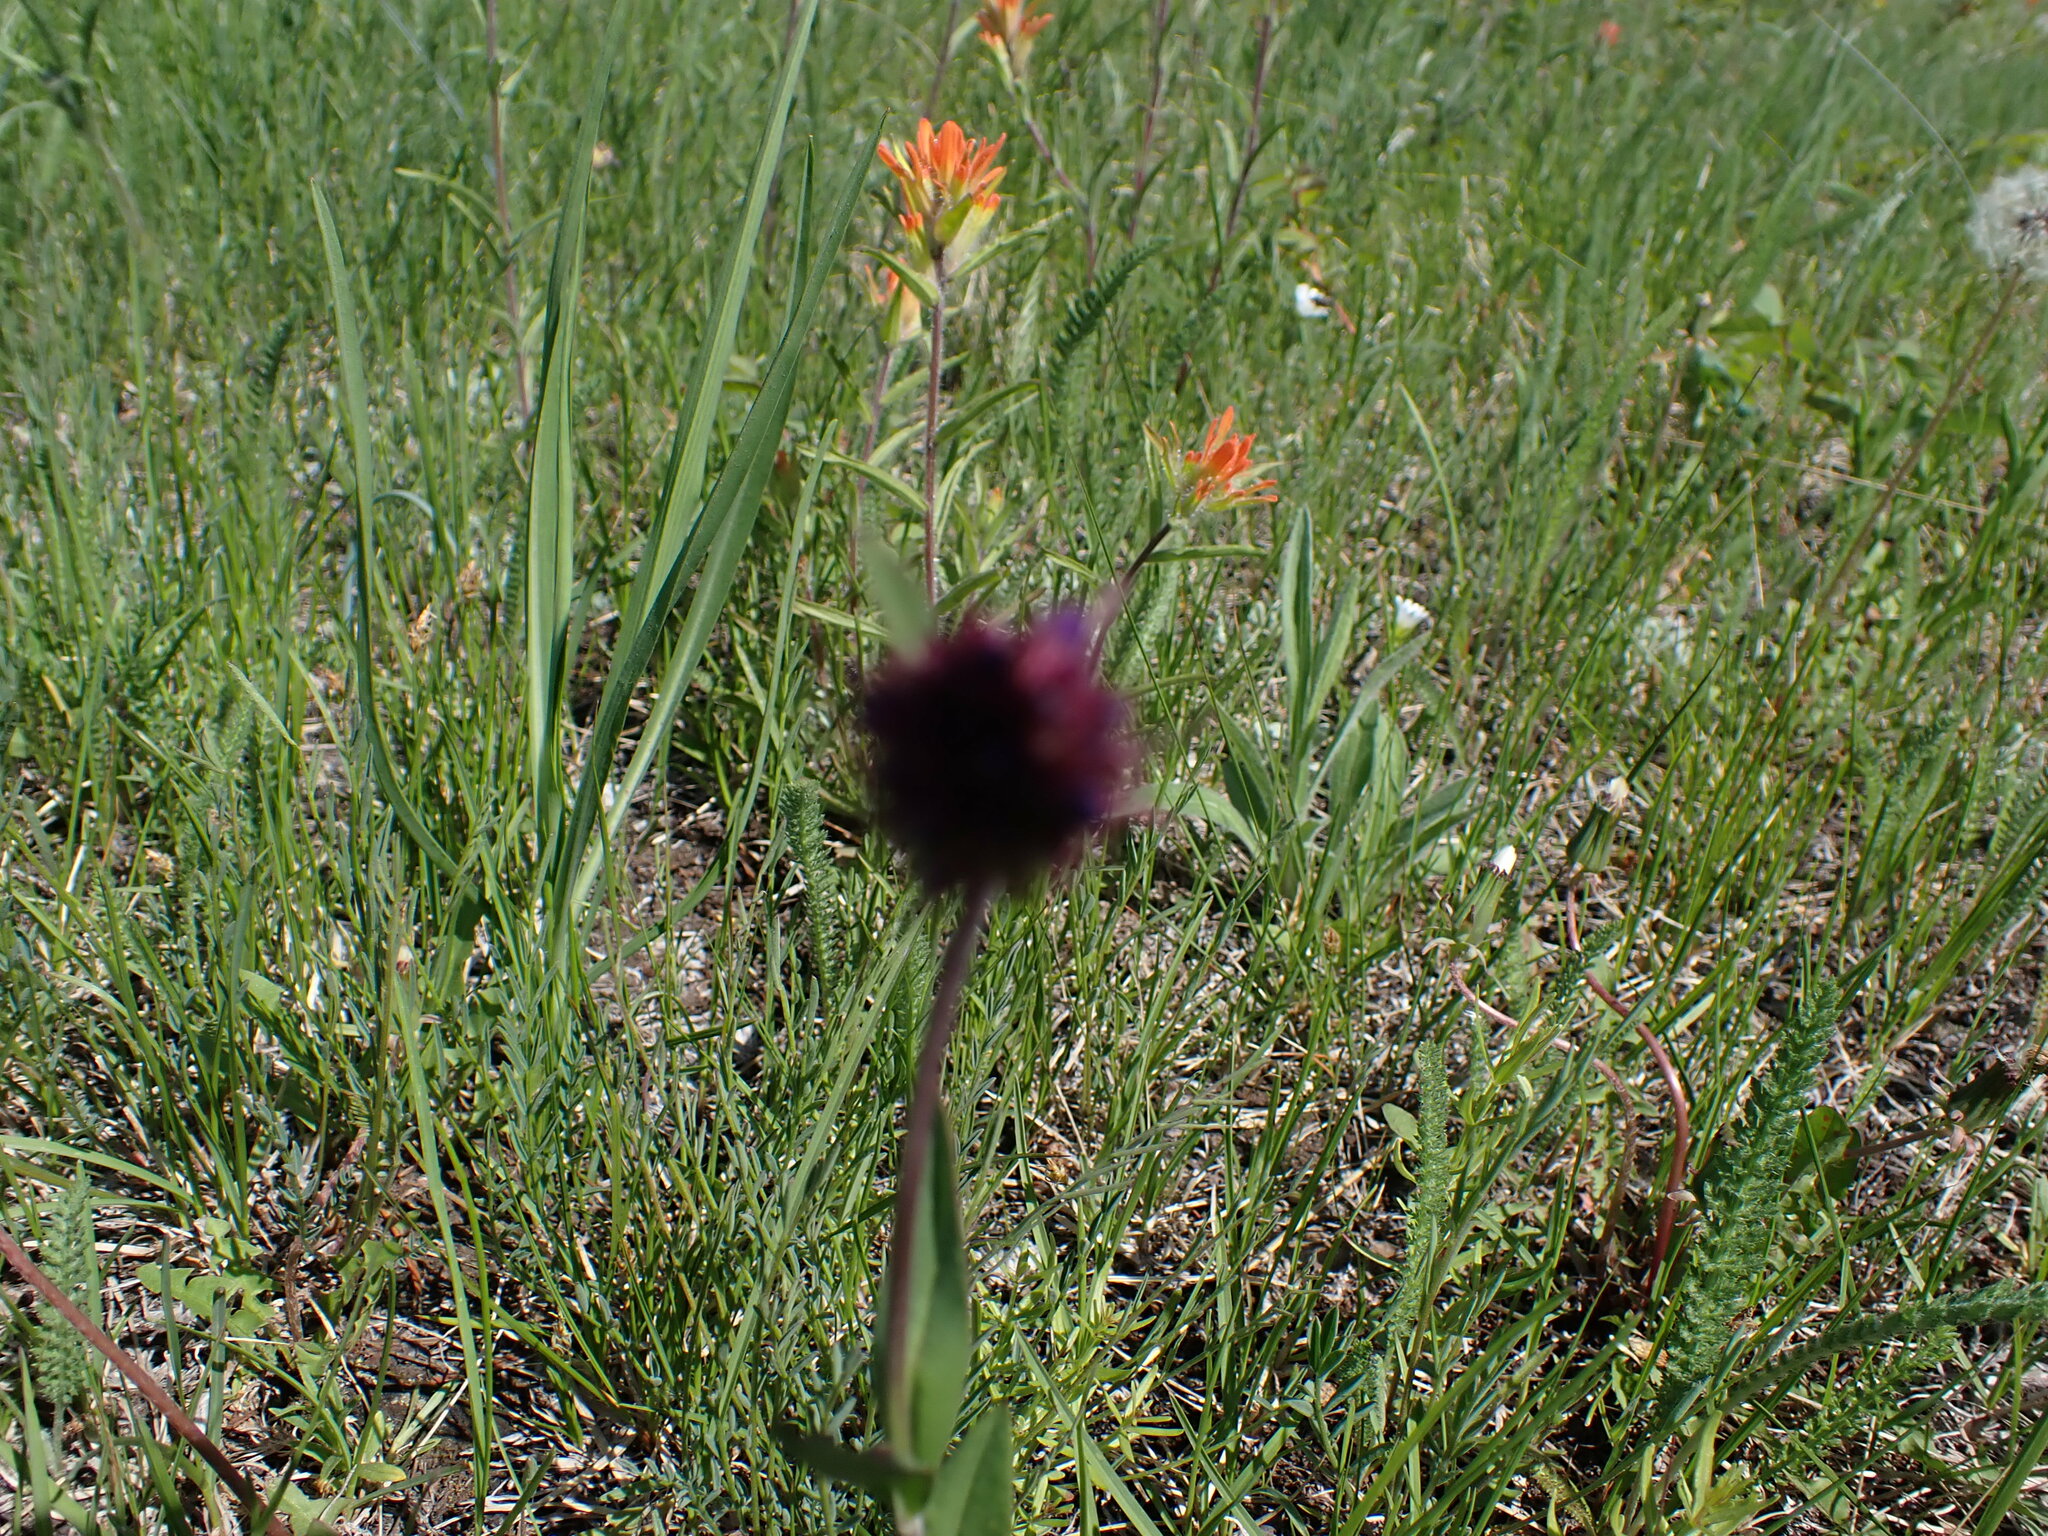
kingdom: Plantae
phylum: Tracheophyta
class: Magnoliopsida
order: Lamiales
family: Plantaginaceae
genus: Penstemon
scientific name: Penstemon procerus
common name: Small-flower penstemon
